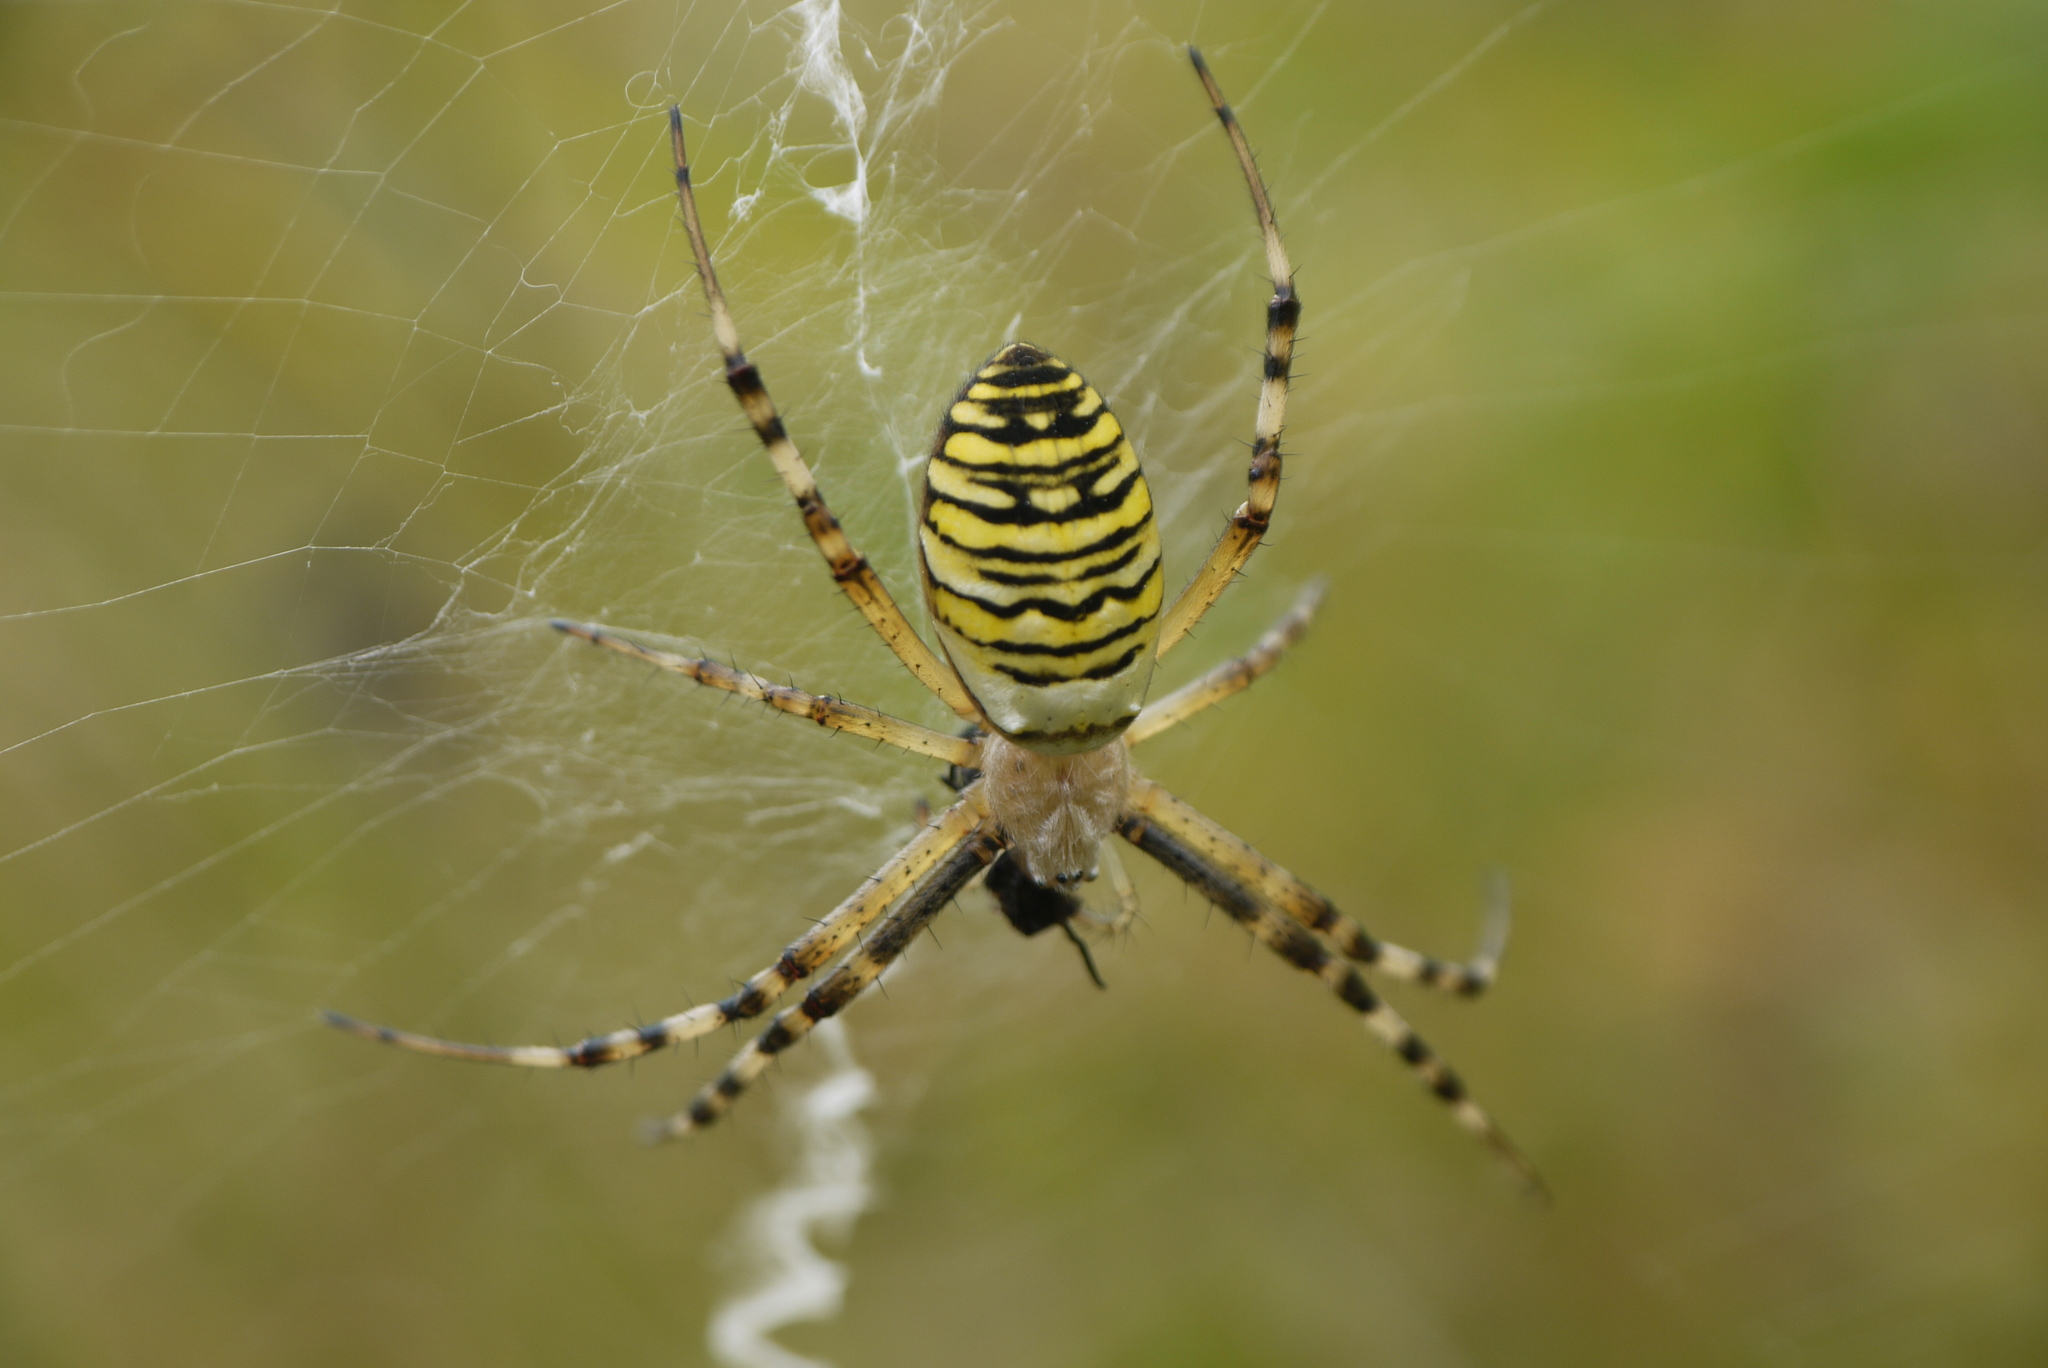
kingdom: Animalia
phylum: Arthropoda
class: Arachnida
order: Araneae
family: Araneidae
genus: Argiope
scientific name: Argiope bruennichi
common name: Wasp spider
